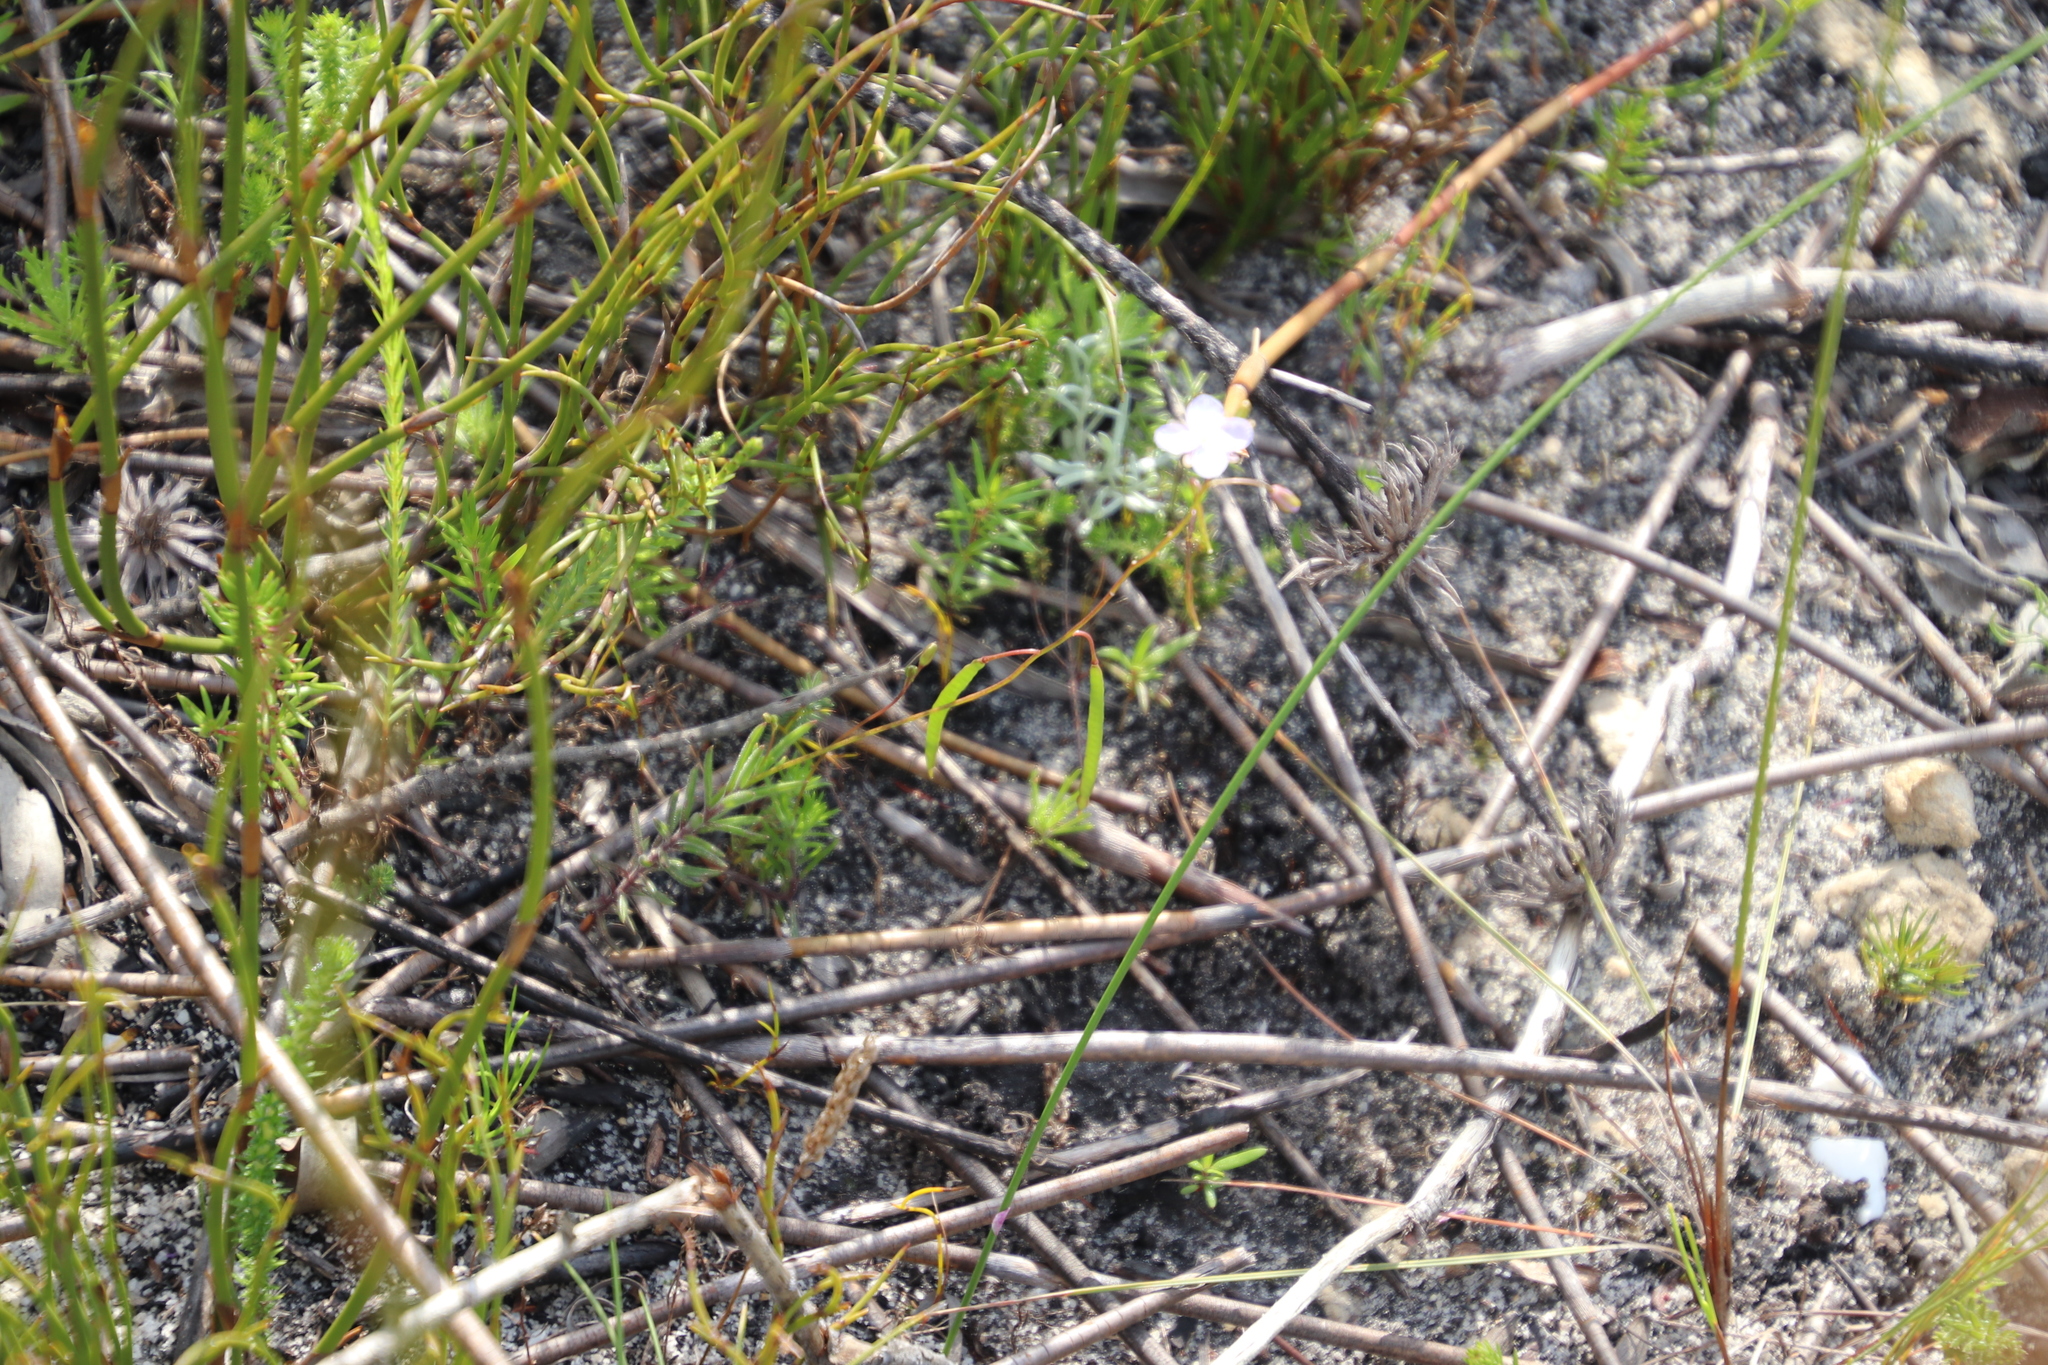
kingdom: Plantae
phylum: Tracheophyta
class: Magnoliopsida
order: Brassicales
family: Brassicaceae
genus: Heliophila
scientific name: Heliophila subulata
